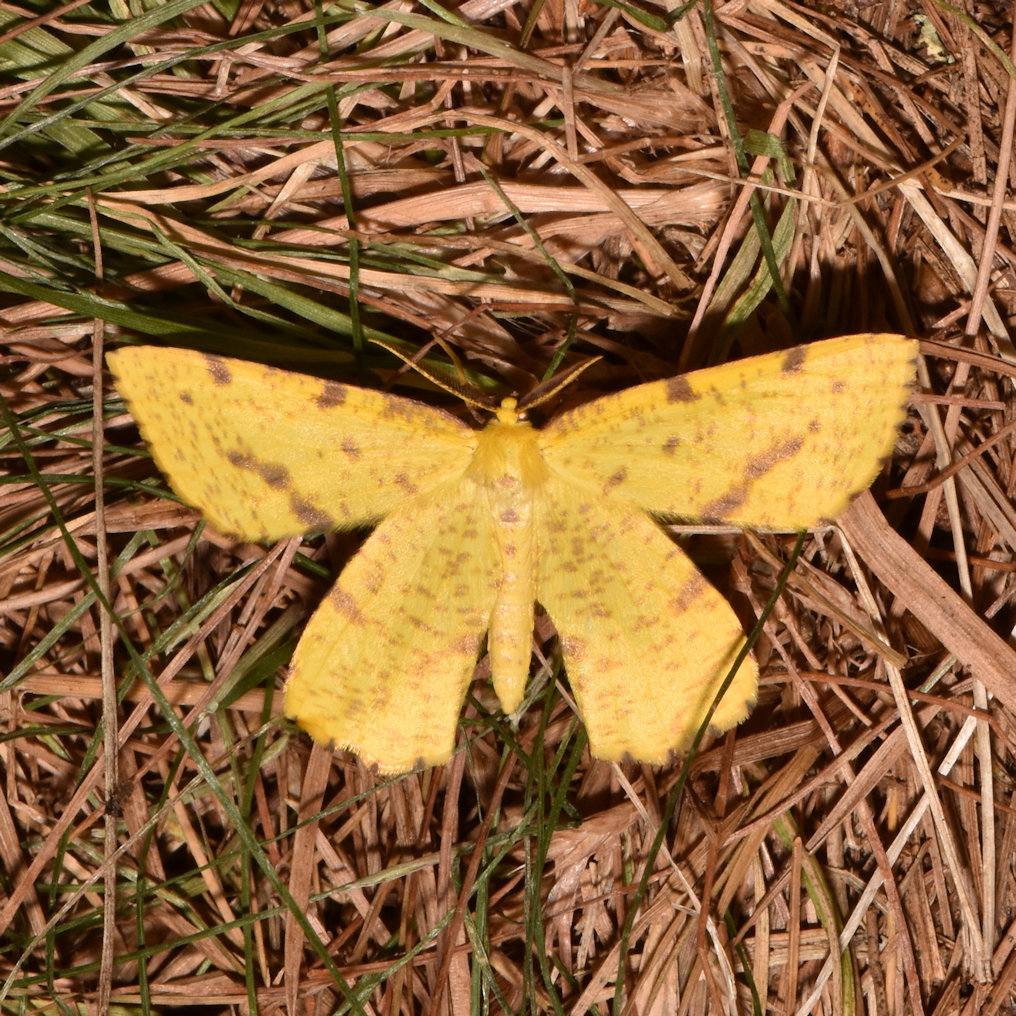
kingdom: Animalia
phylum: Arthropoda
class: Insecta
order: Lepidoptera
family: Geometridae
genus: Xanthotype
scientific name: Xanthotype
